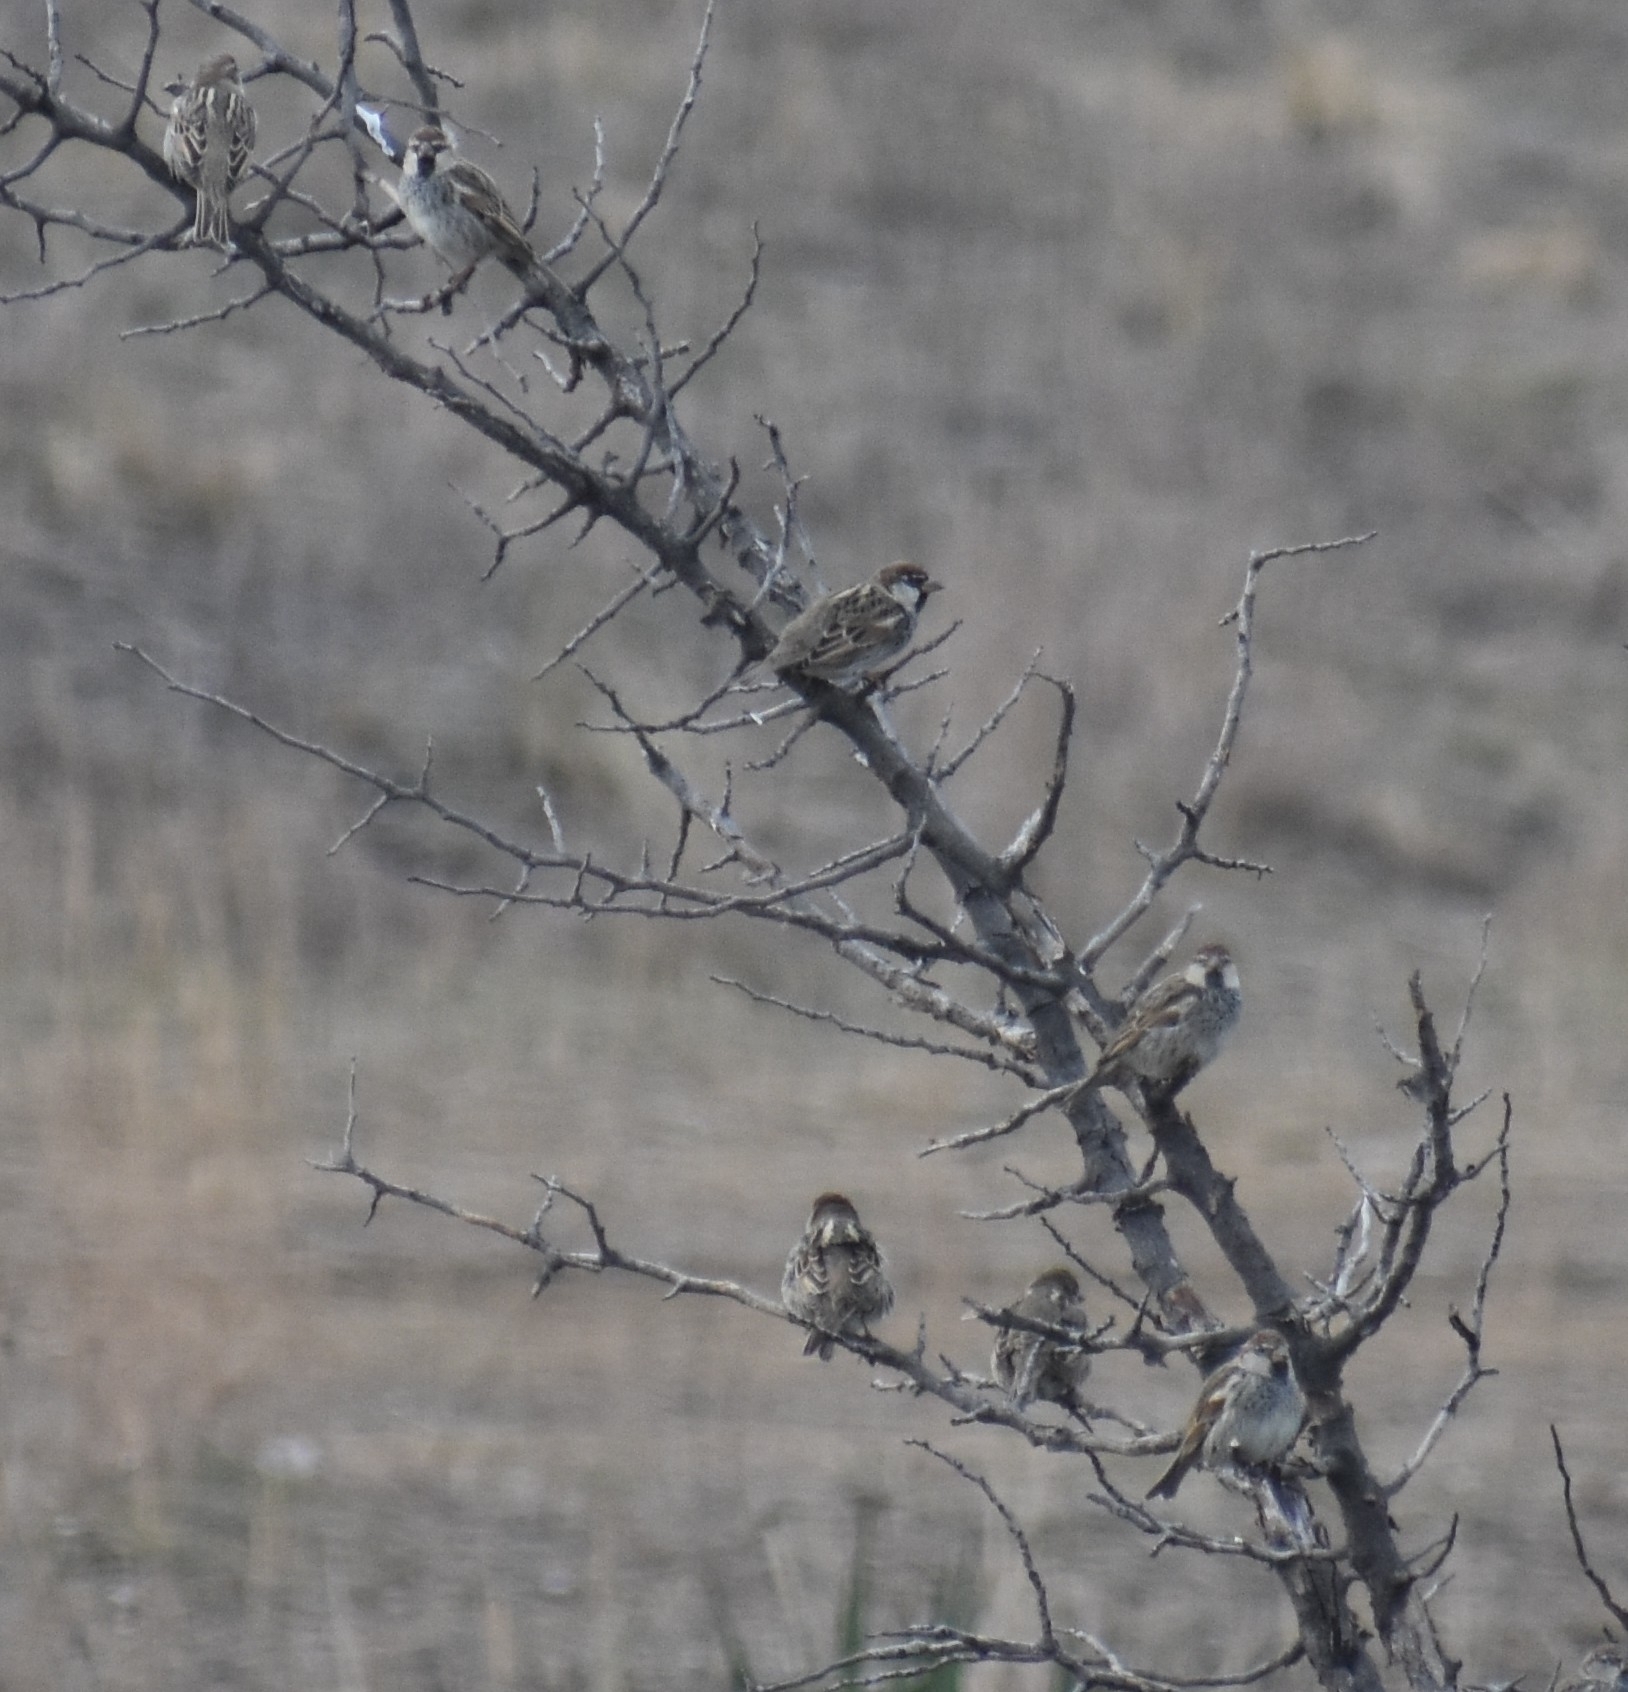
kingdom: Animalia
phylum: Chordata
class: Aves
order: Passeriformes
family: Passeridae
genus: Passer
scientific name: Passer domesticus
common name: House sparrow
